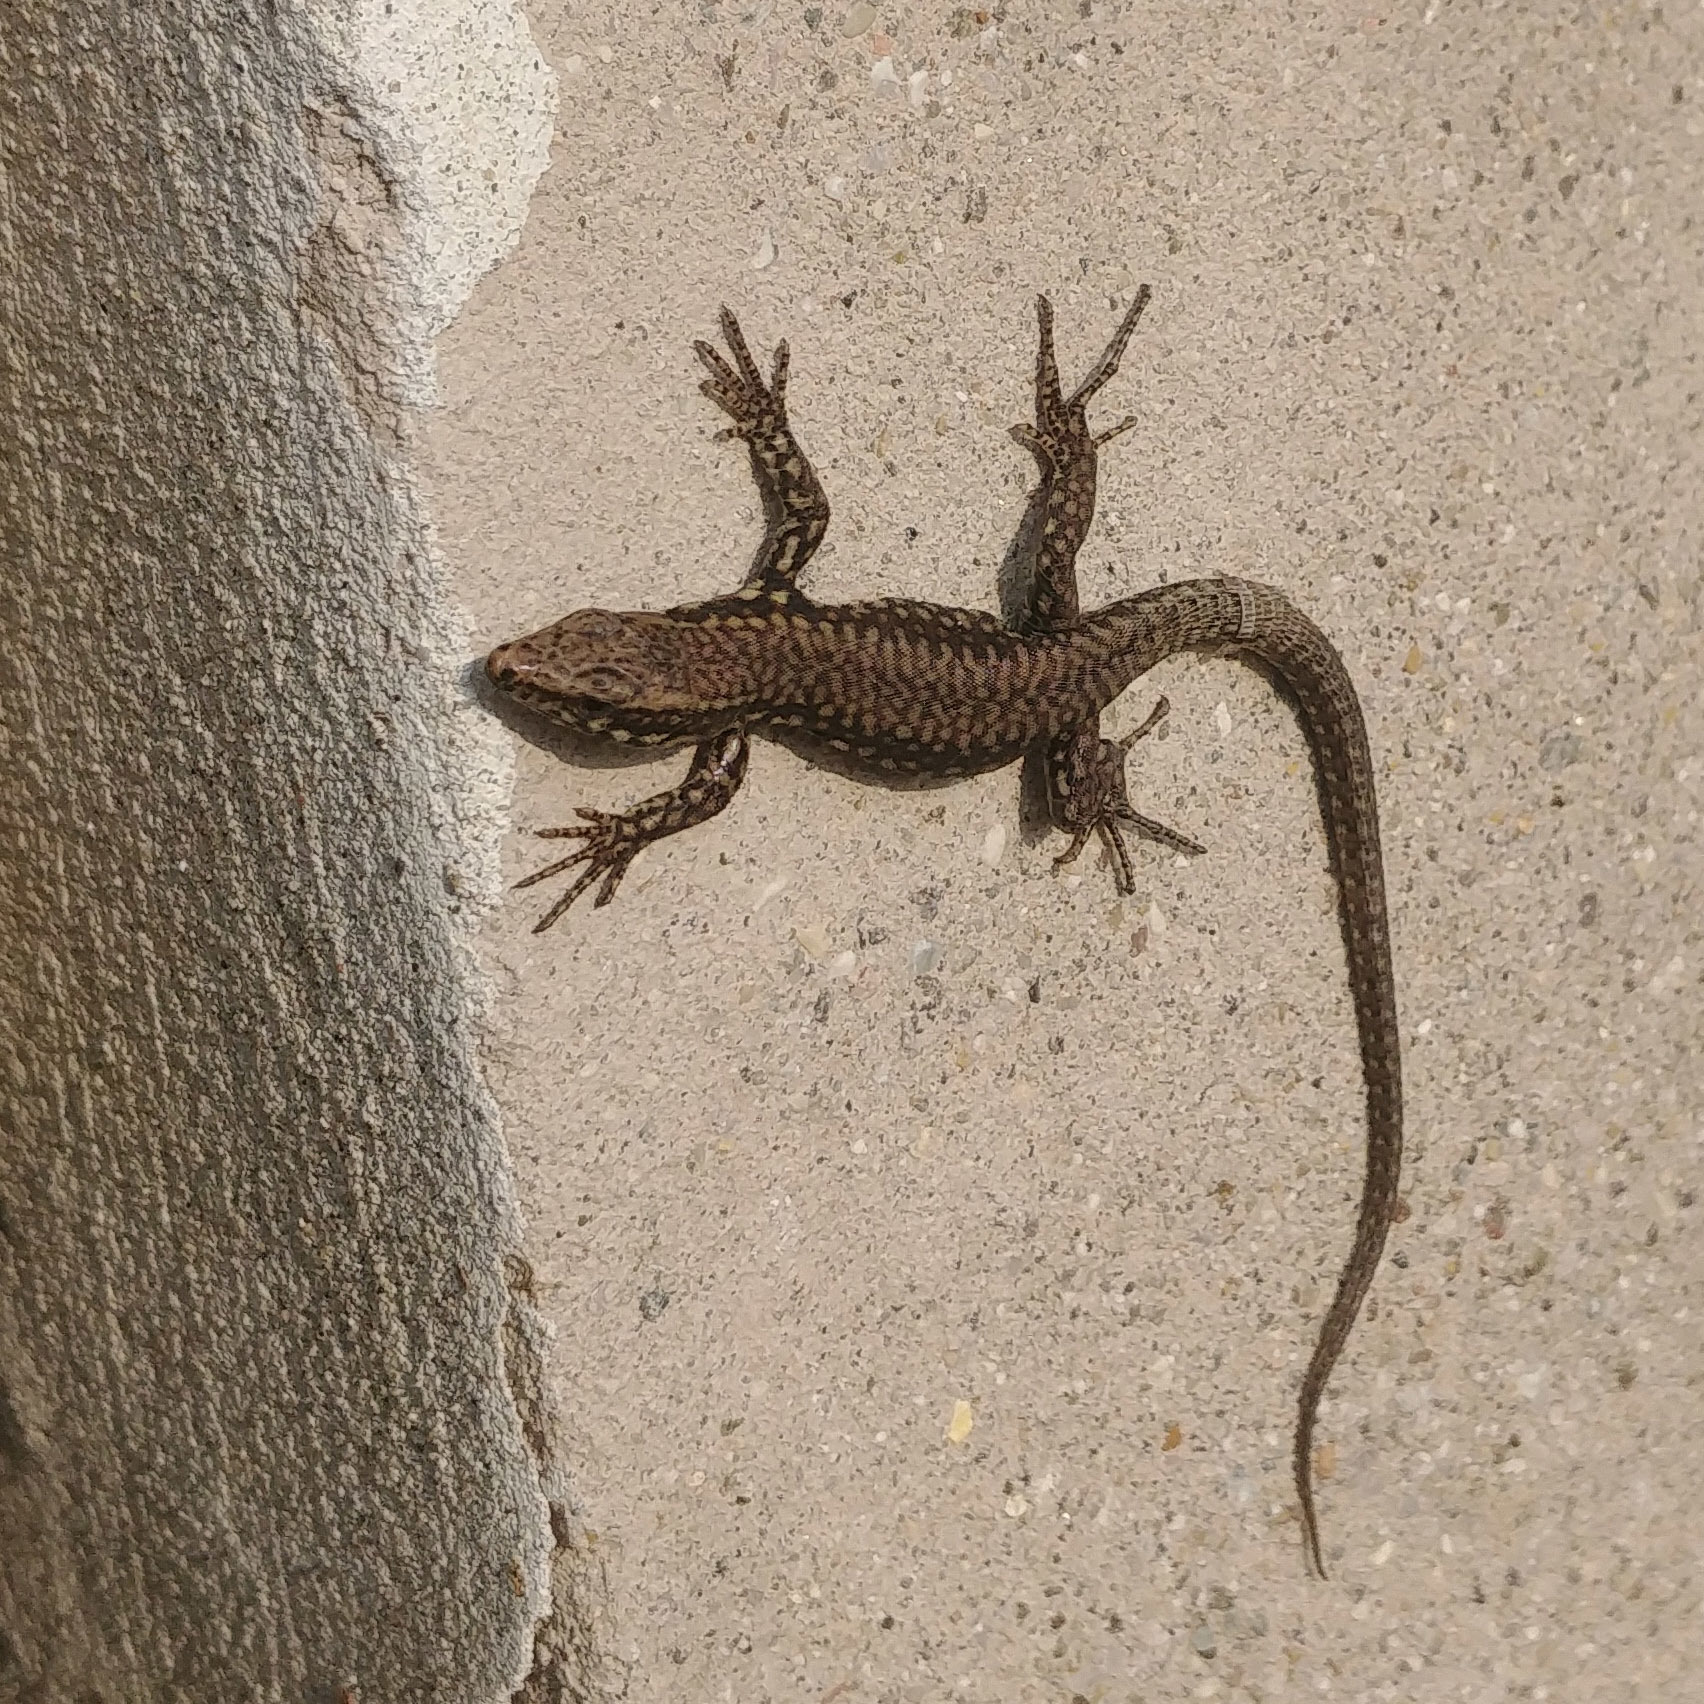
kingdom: Animalia
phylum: Chordata
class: Squamata
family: Lacertidae
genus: Podarcis
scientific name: Podarcis muralis
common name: Common wall lizard
